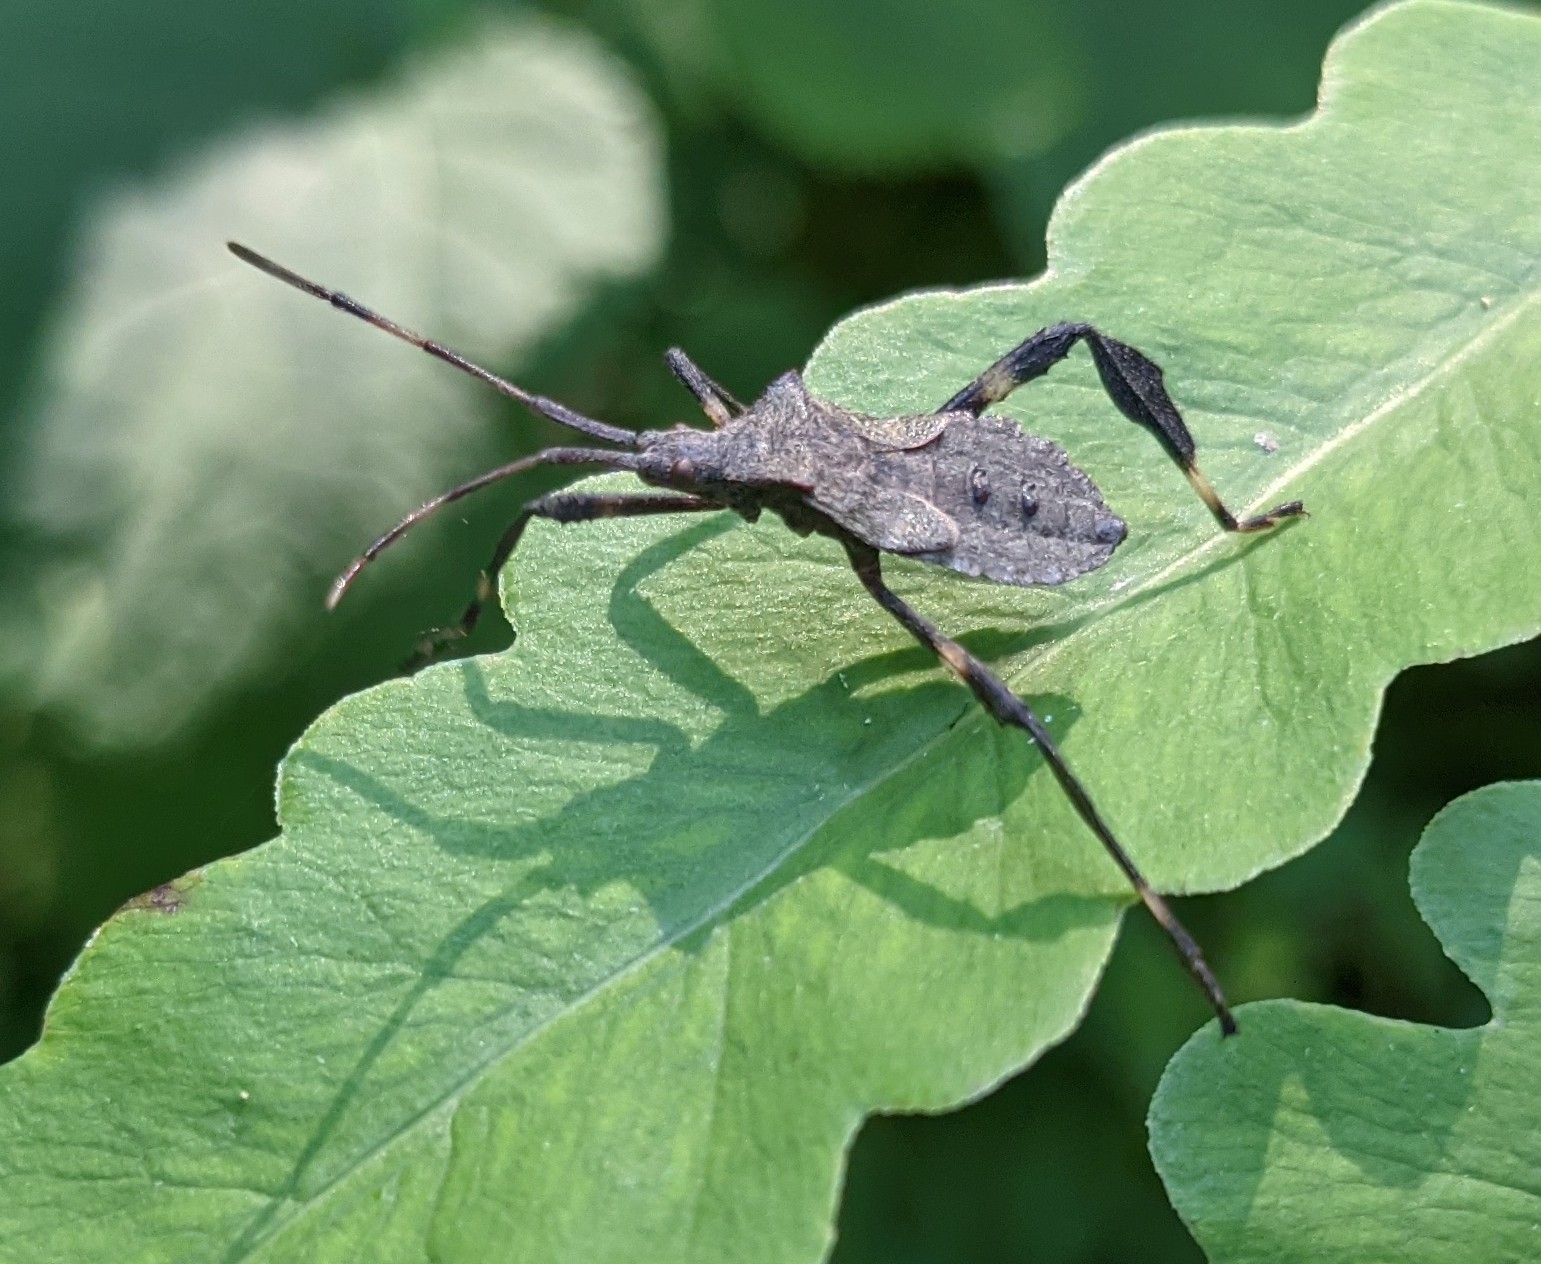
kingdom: Animalia
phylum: Arthropoda
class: Insecta
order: Hemiptera
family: Coreidae
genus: Acanthocephala
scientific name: Acanthocephala terminalis
